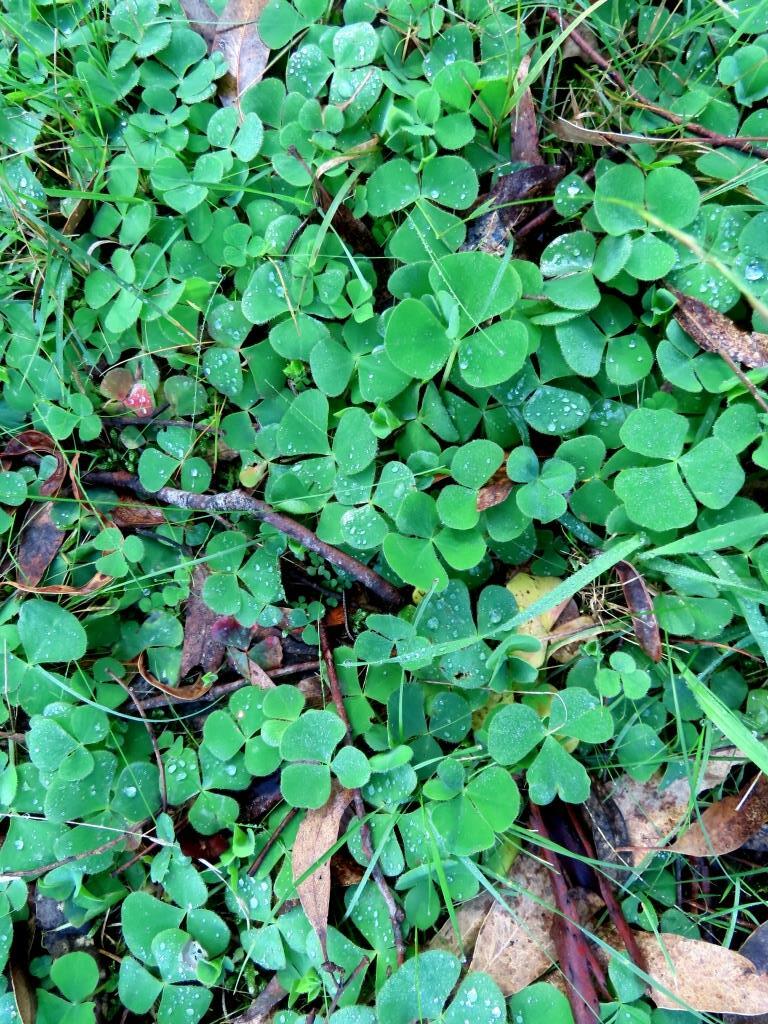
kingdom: Plantae
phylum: Tracheophyta
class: Magnoliopsida
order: Oxalidales
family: Oxalidaceae
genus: Oxalis
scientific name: Oxalis purpurea
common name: Purple woodsorrel
